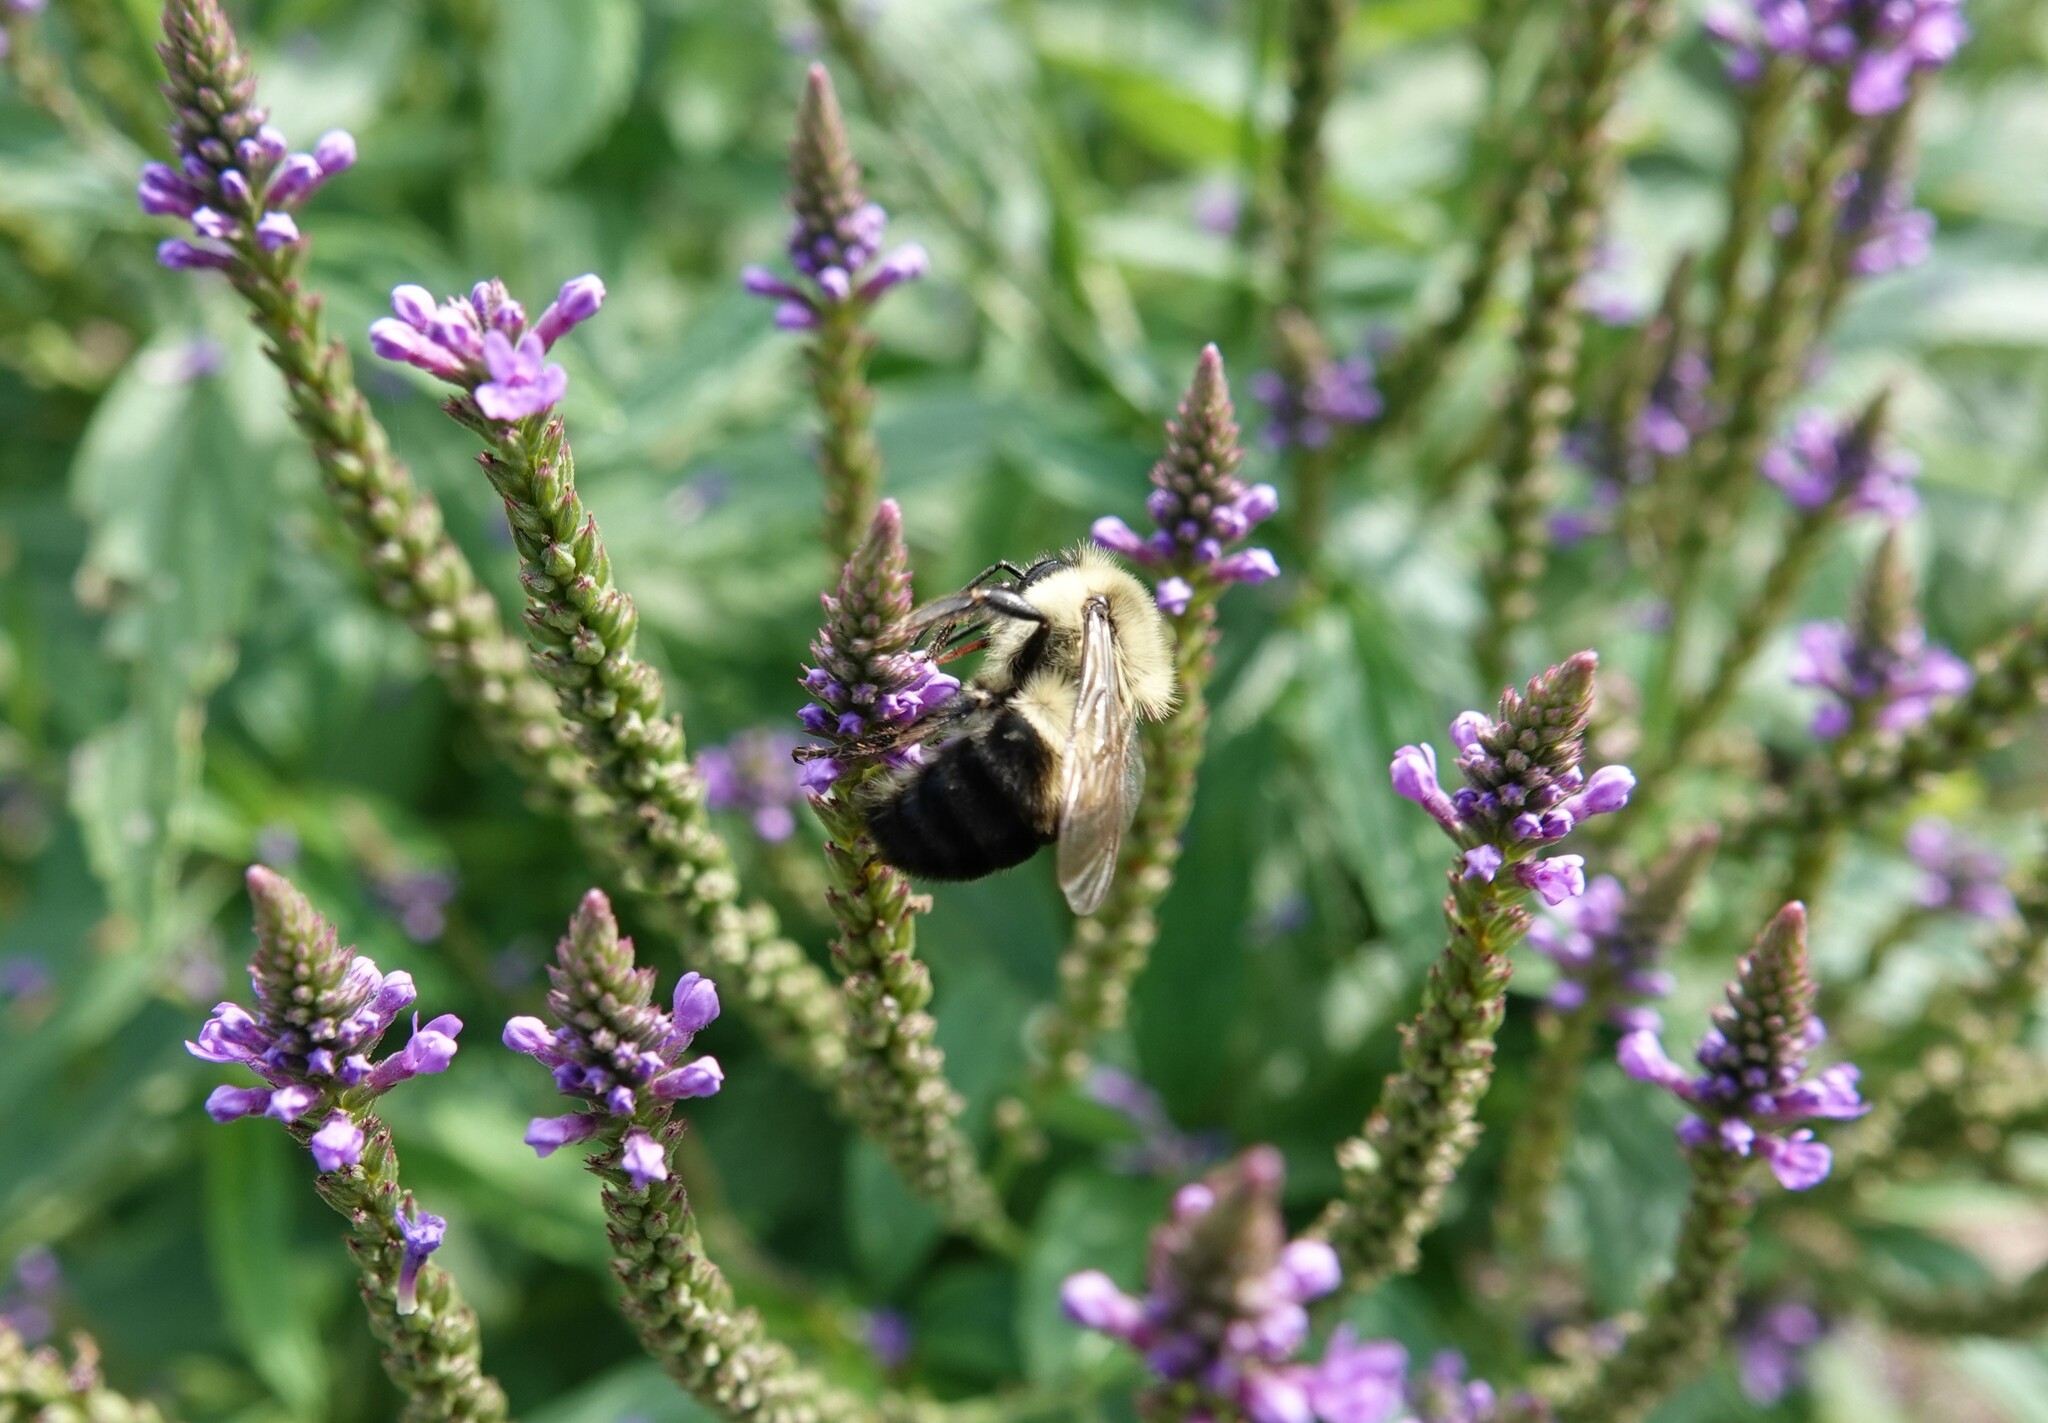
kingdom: Animalia
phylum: Arthropoda
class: Insecta
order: Hymenoptera
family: Apidae
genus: Bombus
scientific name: Bombus bimaculatus
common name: Two-spotted bumble bee
